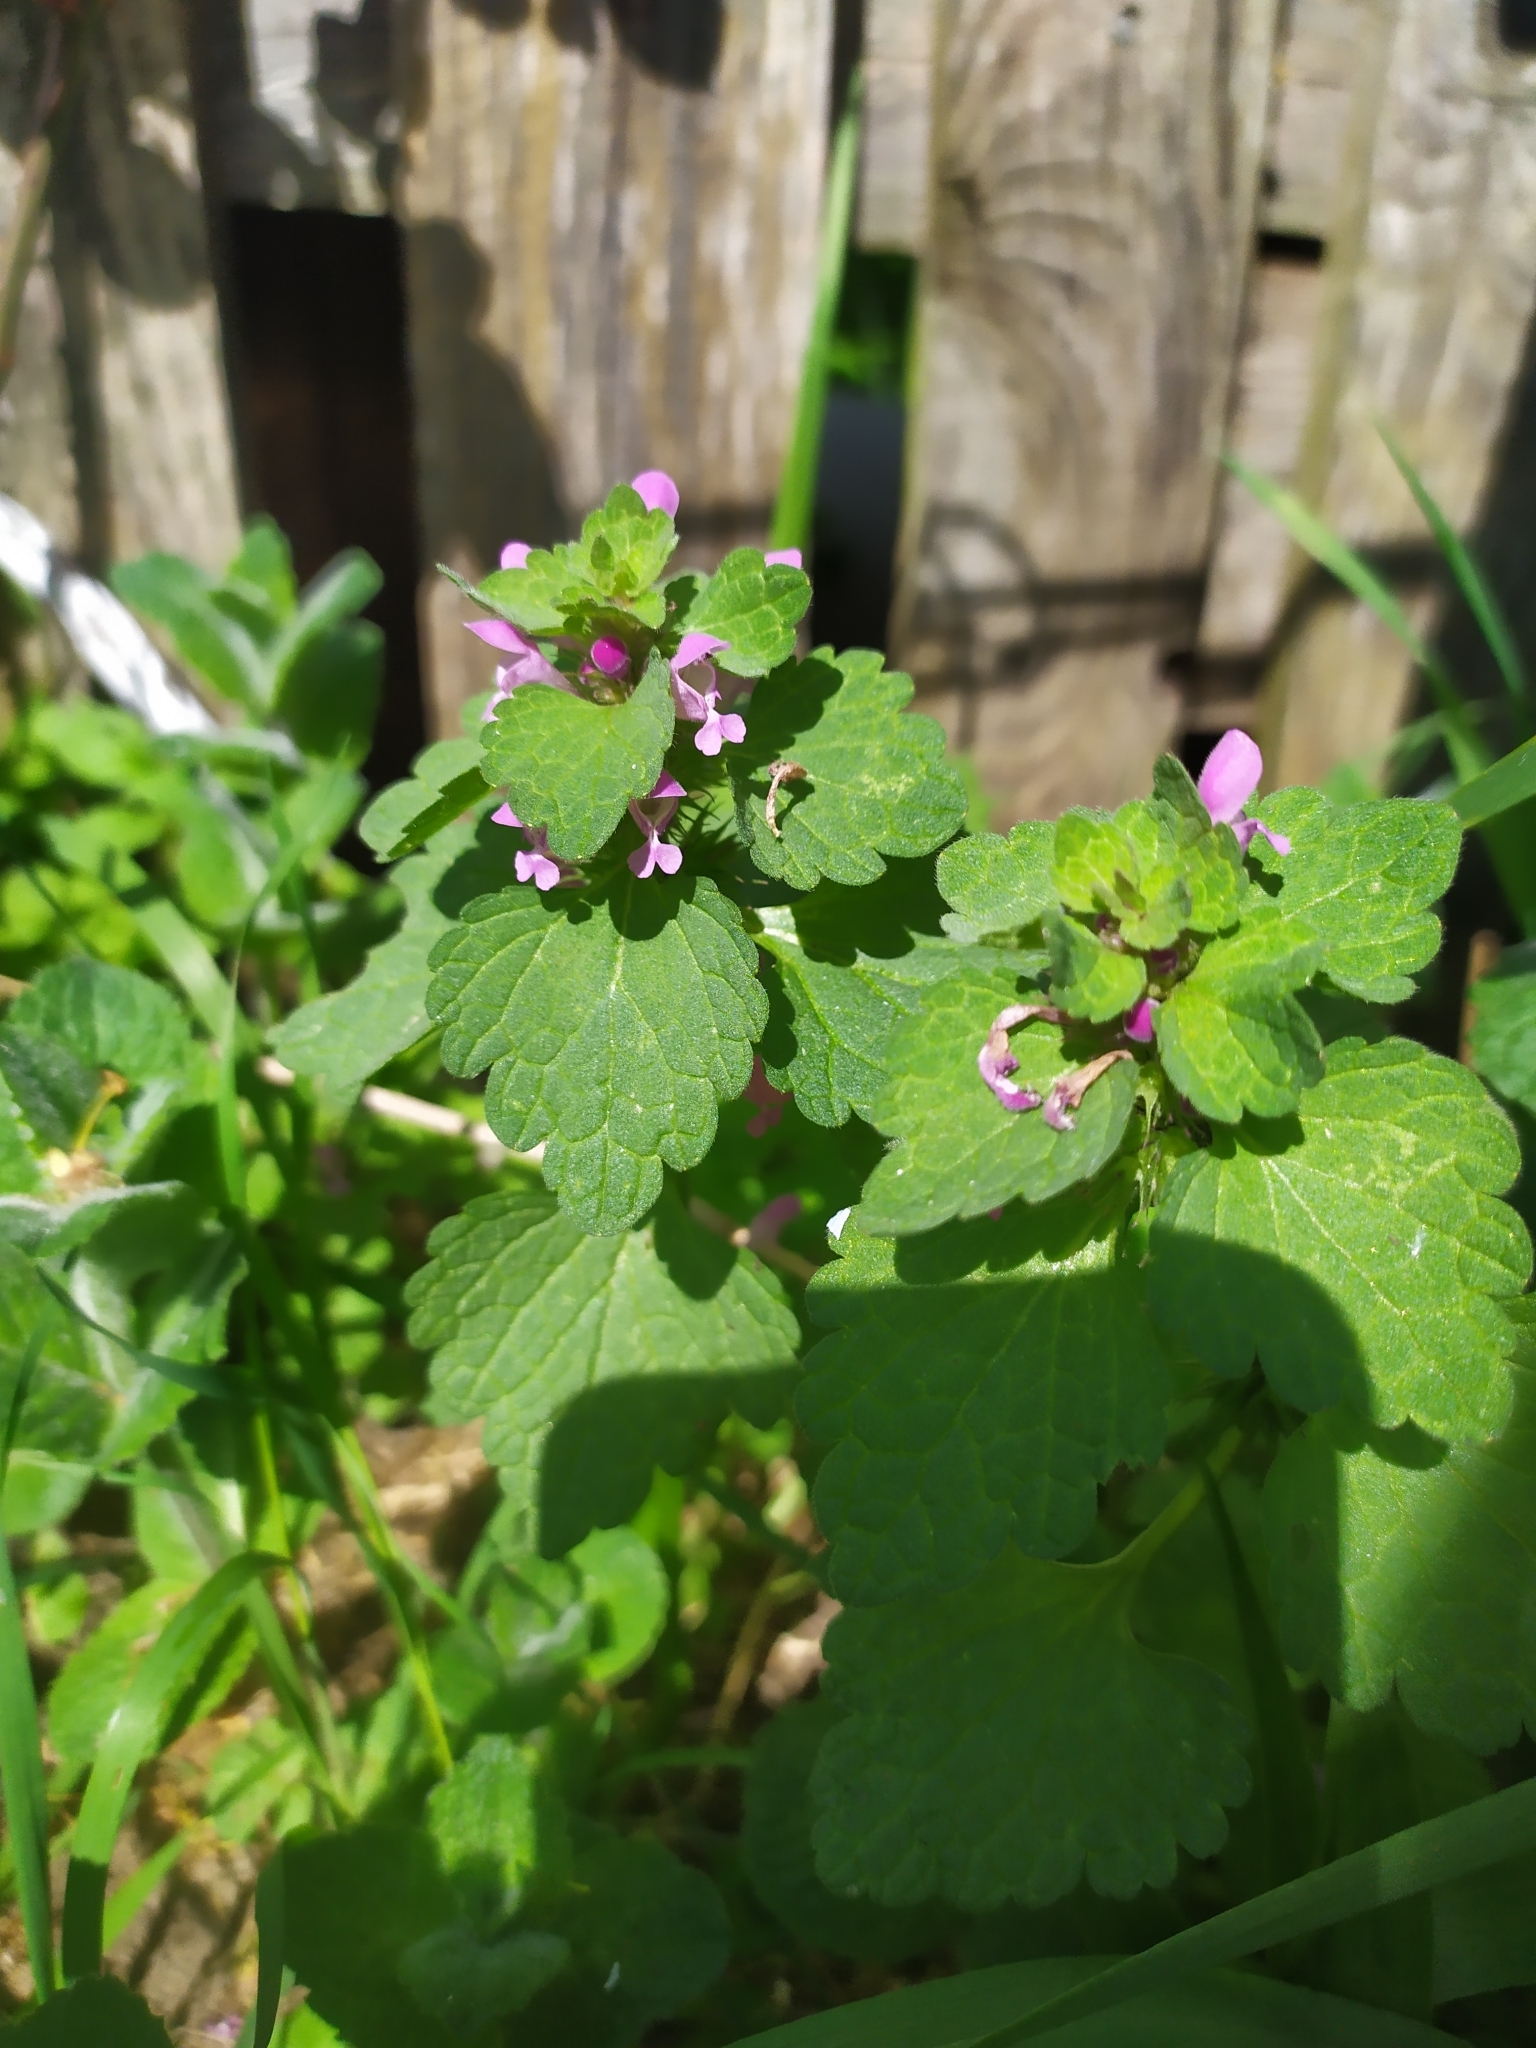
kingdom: Plantae
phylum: Tracheophyta
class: Magnoliopsida
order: Lamiales
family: Lamiaceae
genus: Lamium
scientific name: Lamium purpureum
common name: Red dead-nettle
